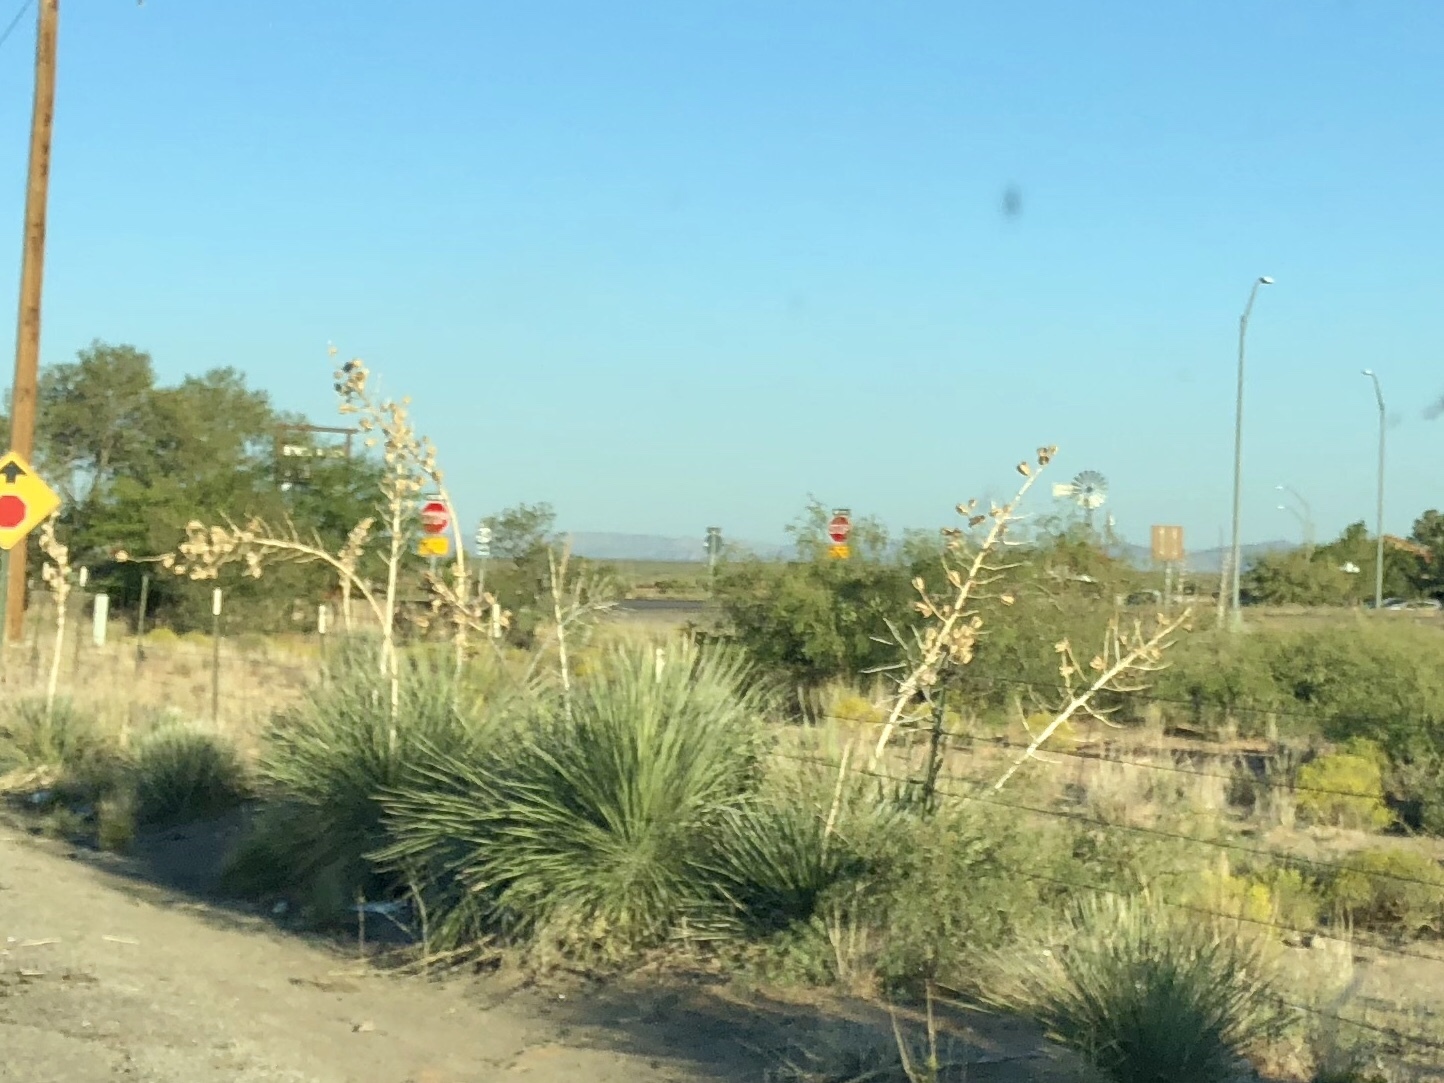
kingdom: Plantae
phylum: Tracheophyta
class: Liliopsida
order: Asparagales
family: Asparagaceae
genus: Yucca
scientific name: Yucca elata
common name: Palmella
